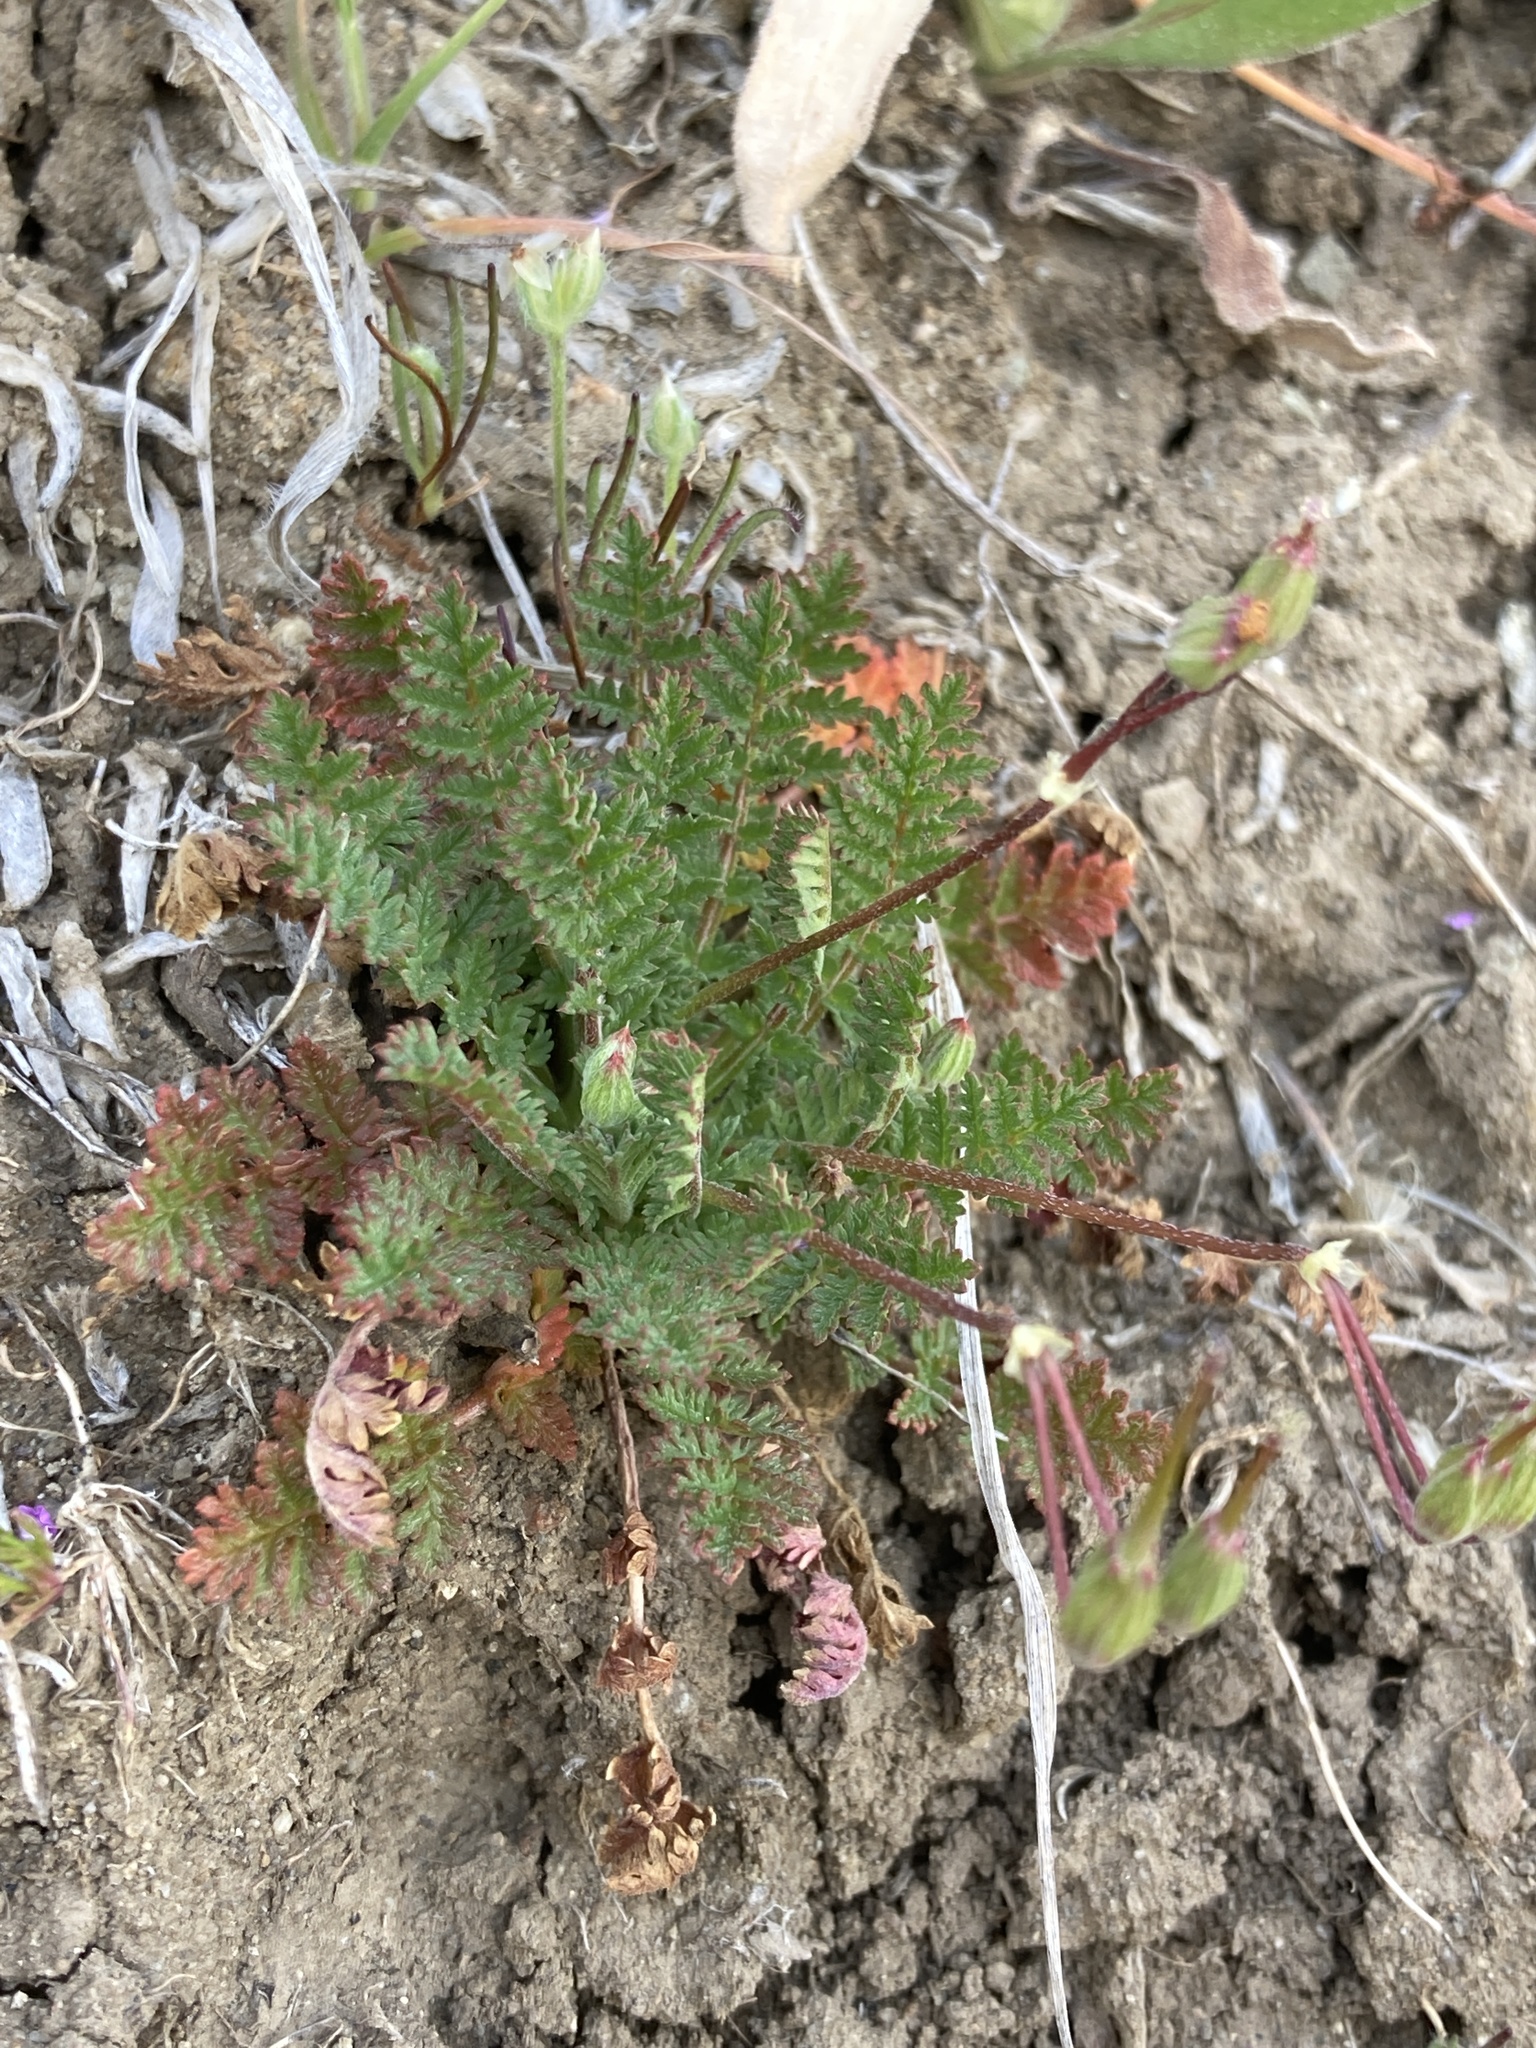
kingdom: Plantae
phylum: Tracheophyta
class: Magnoliopsida
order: Geraniales
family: Geraniaceae
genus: Erodium
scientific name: Erodium cicutarium
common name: Common stork's-bill
